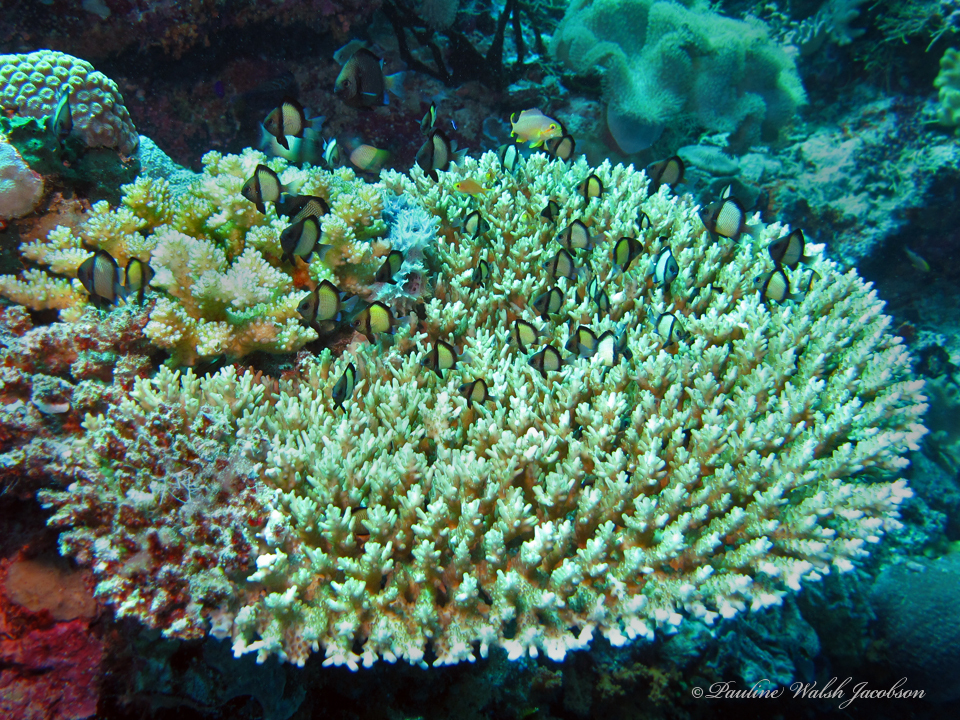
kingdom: Animalia
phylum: Chordata
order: Perciformes
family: Pomacentridae
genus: Dascyllus
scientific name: Dascyllus reticulatus
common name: Reticulated dascyllus
